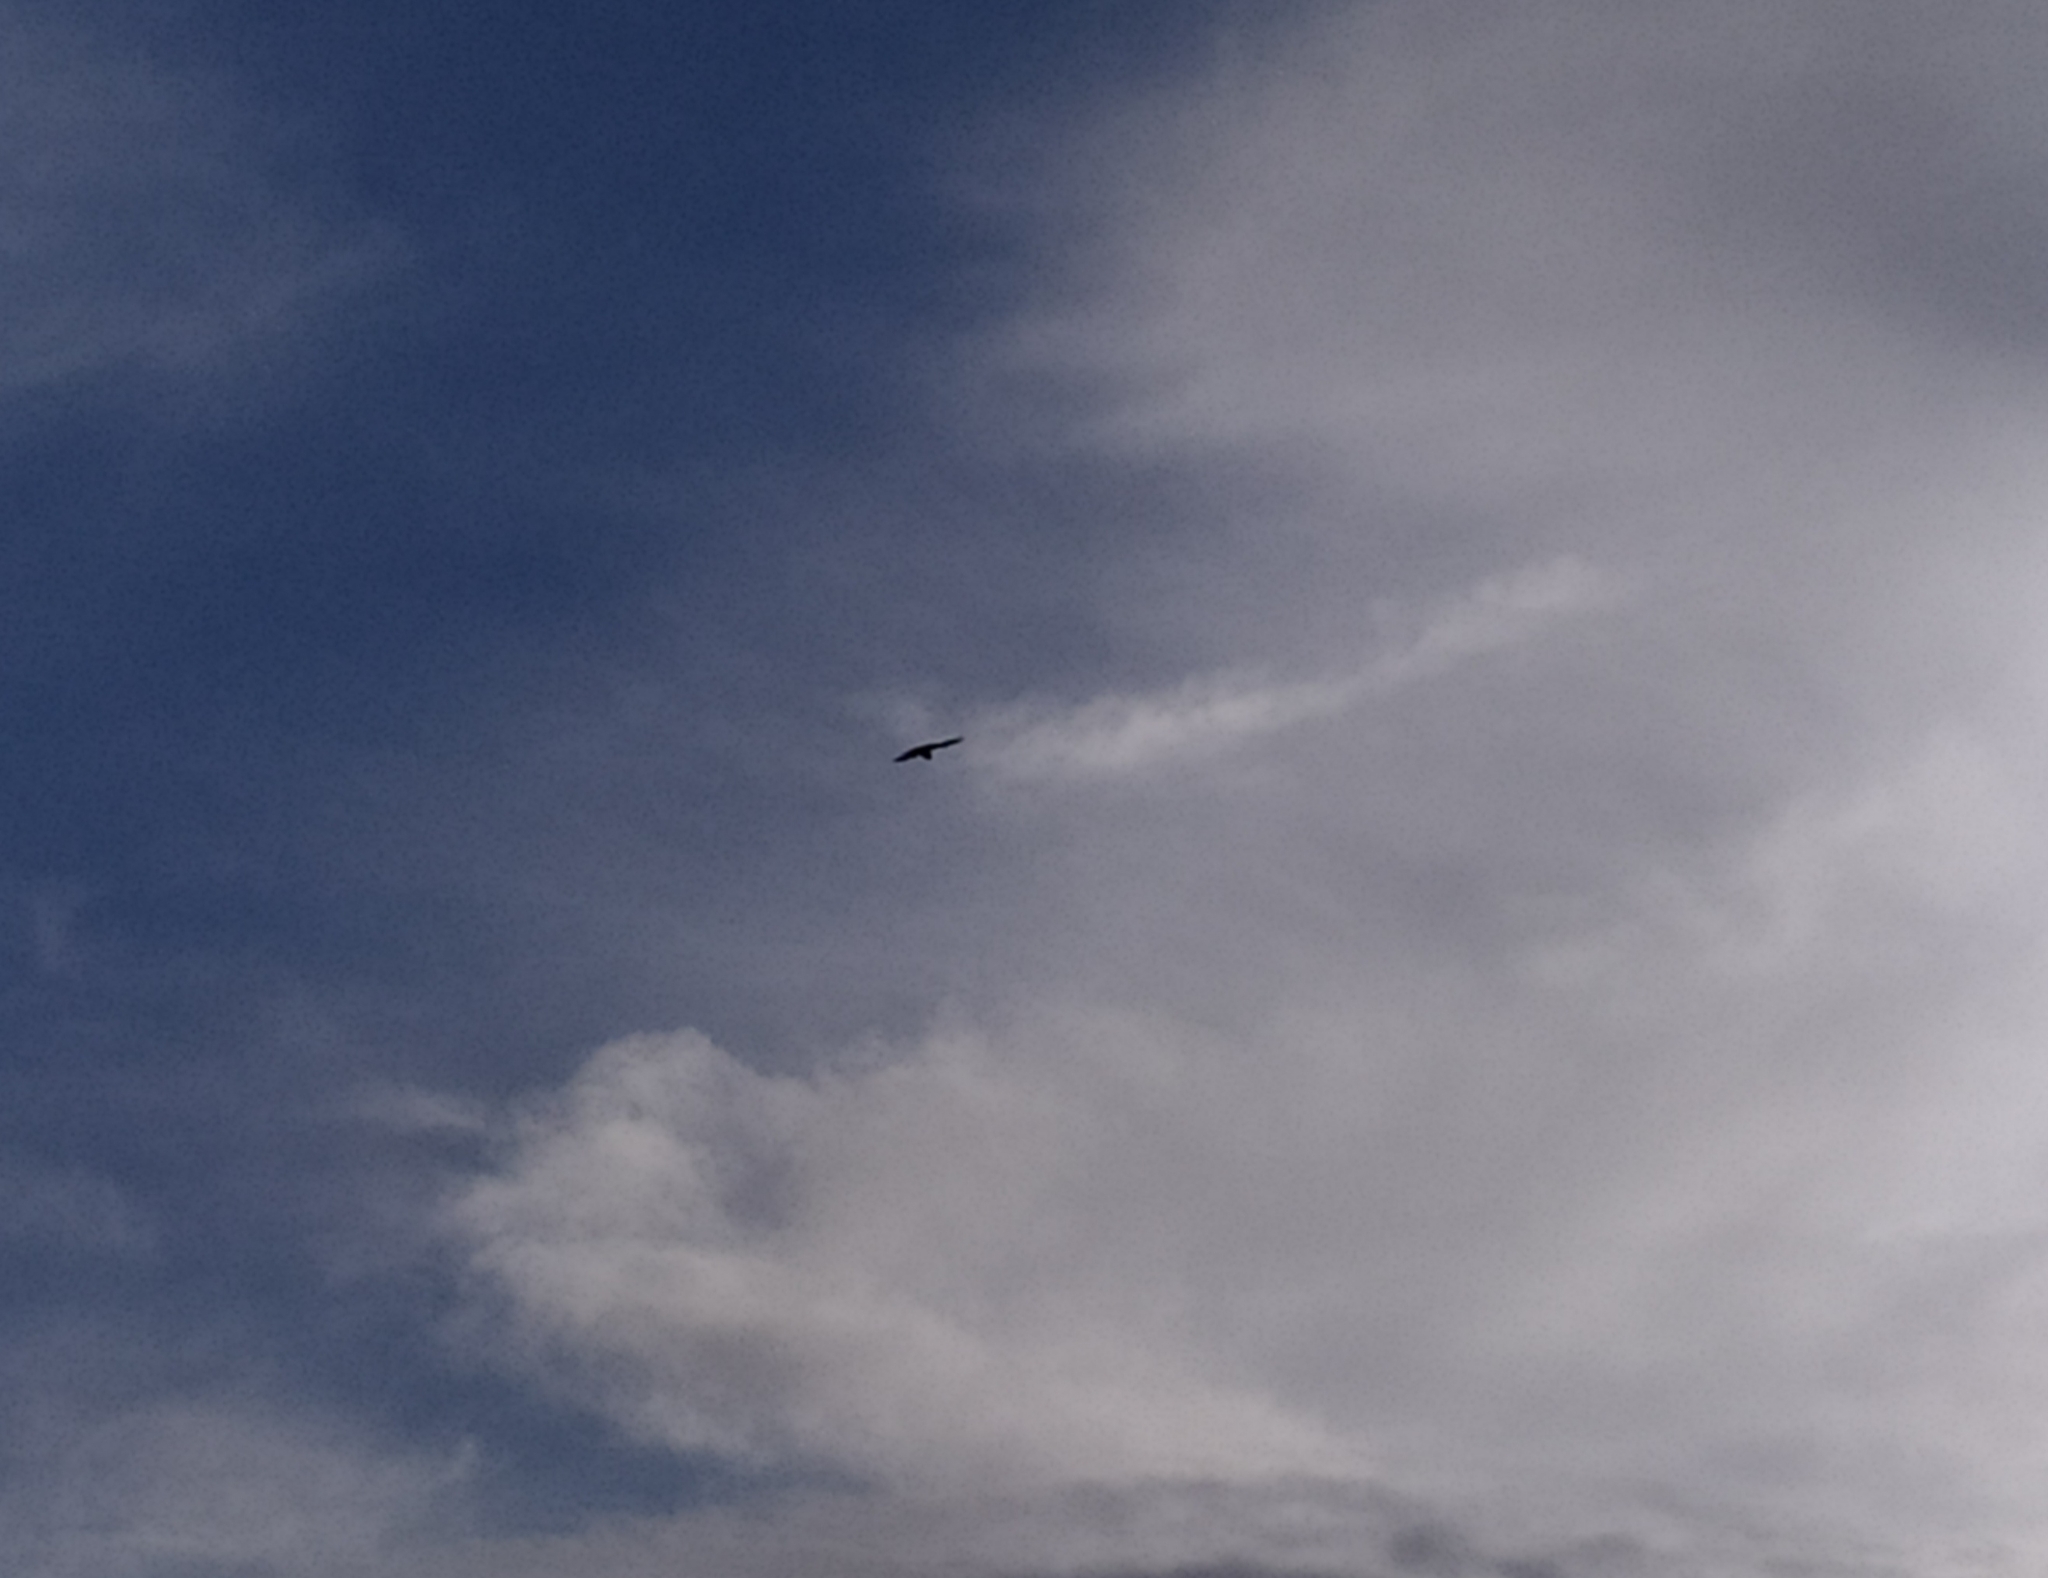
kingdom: Animalia
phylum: Chordata
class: Aves
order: Falconiformes
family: Falconidae
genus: Falco
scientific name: Falco tinnunculus
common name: Common kestrel
